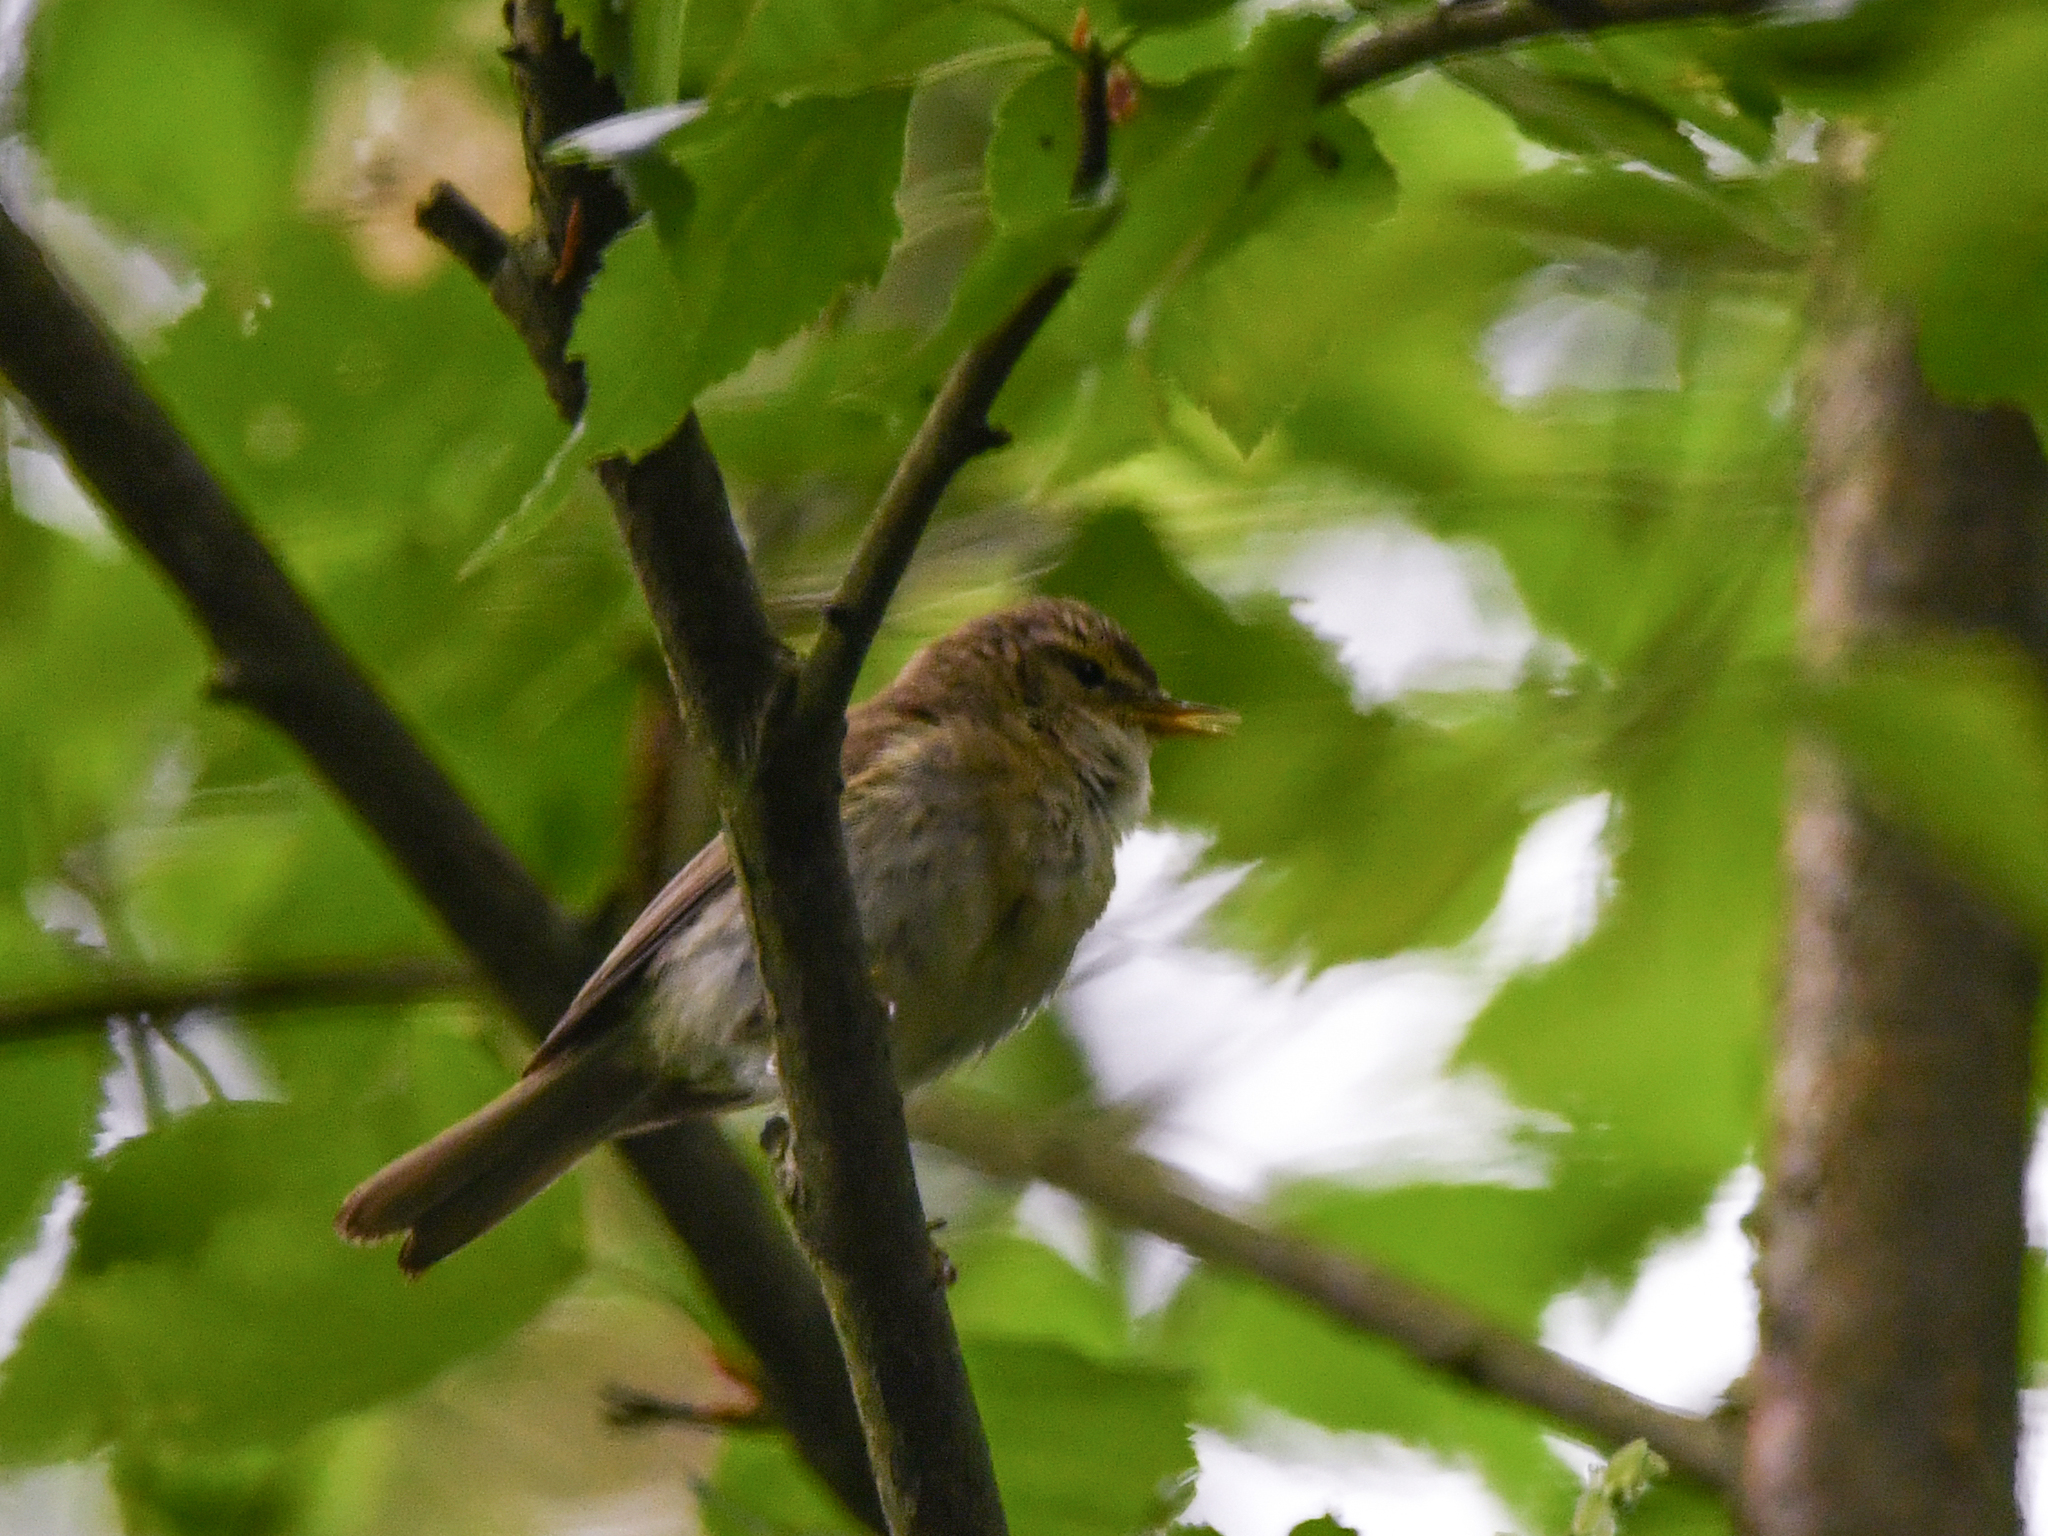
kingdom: Animalia
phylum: Chordata
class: Aves
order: Passeriformes
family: Phylloscopidae
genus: Phylloscopus
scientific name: Phylloscopus trochilus
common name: Willow warbler
